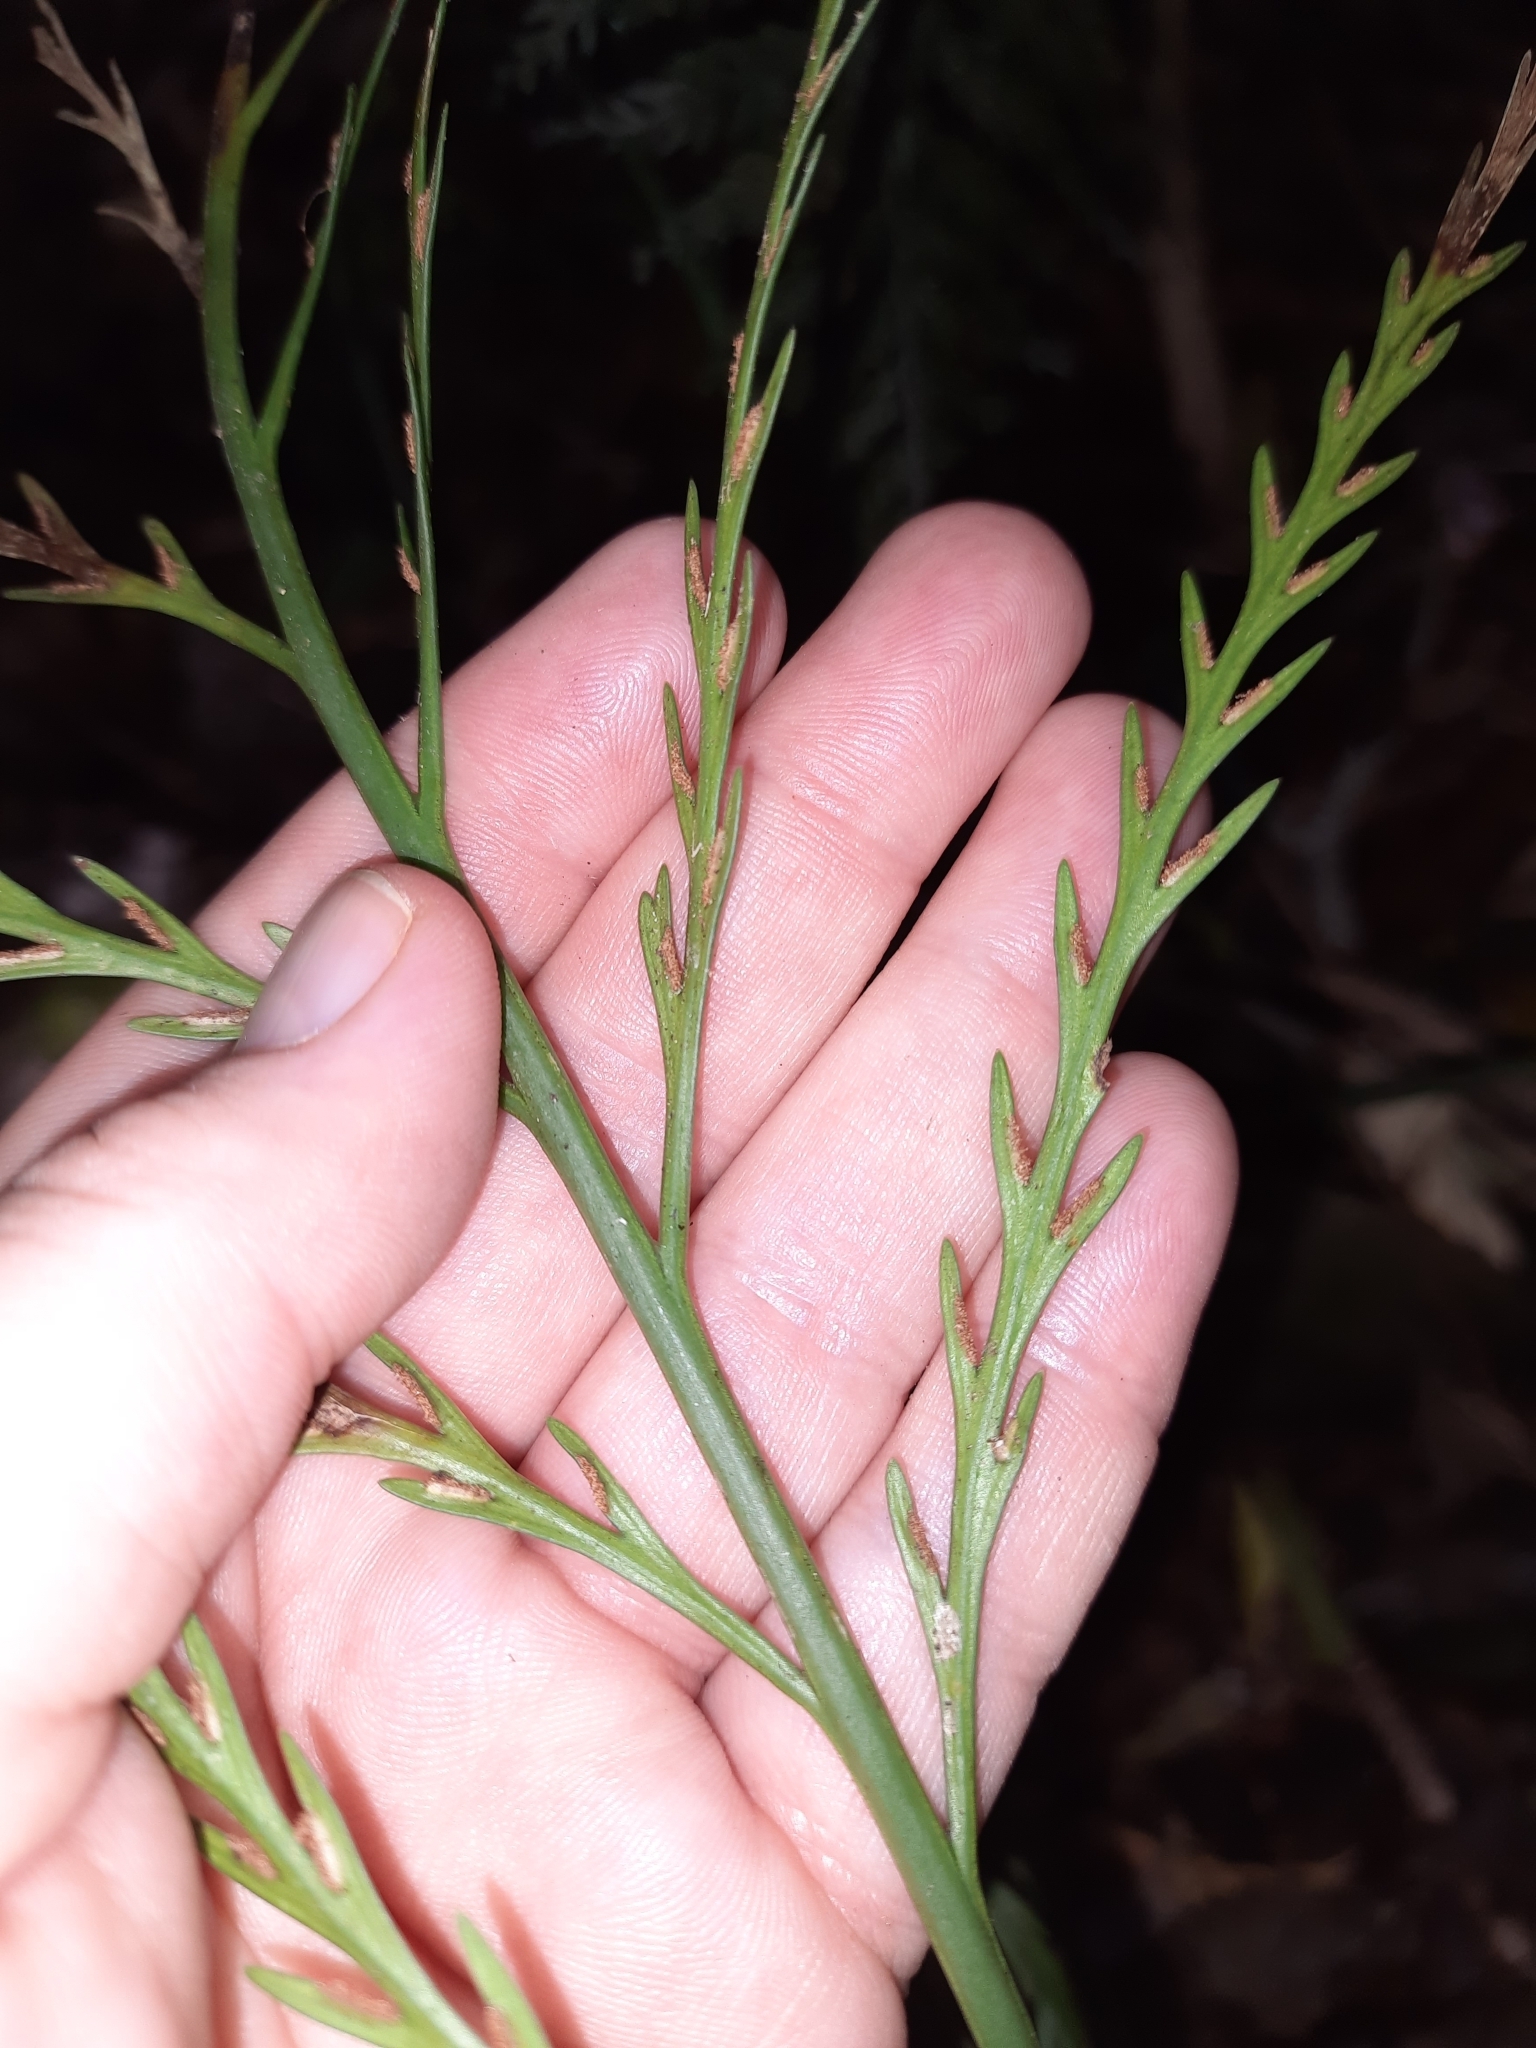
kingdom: Plantae
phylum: Tracheophyta
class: Polypodiopsida
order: Polypodiales
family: Aspleniaceae
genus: Asplenium
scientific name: Asplenium flaccidum
